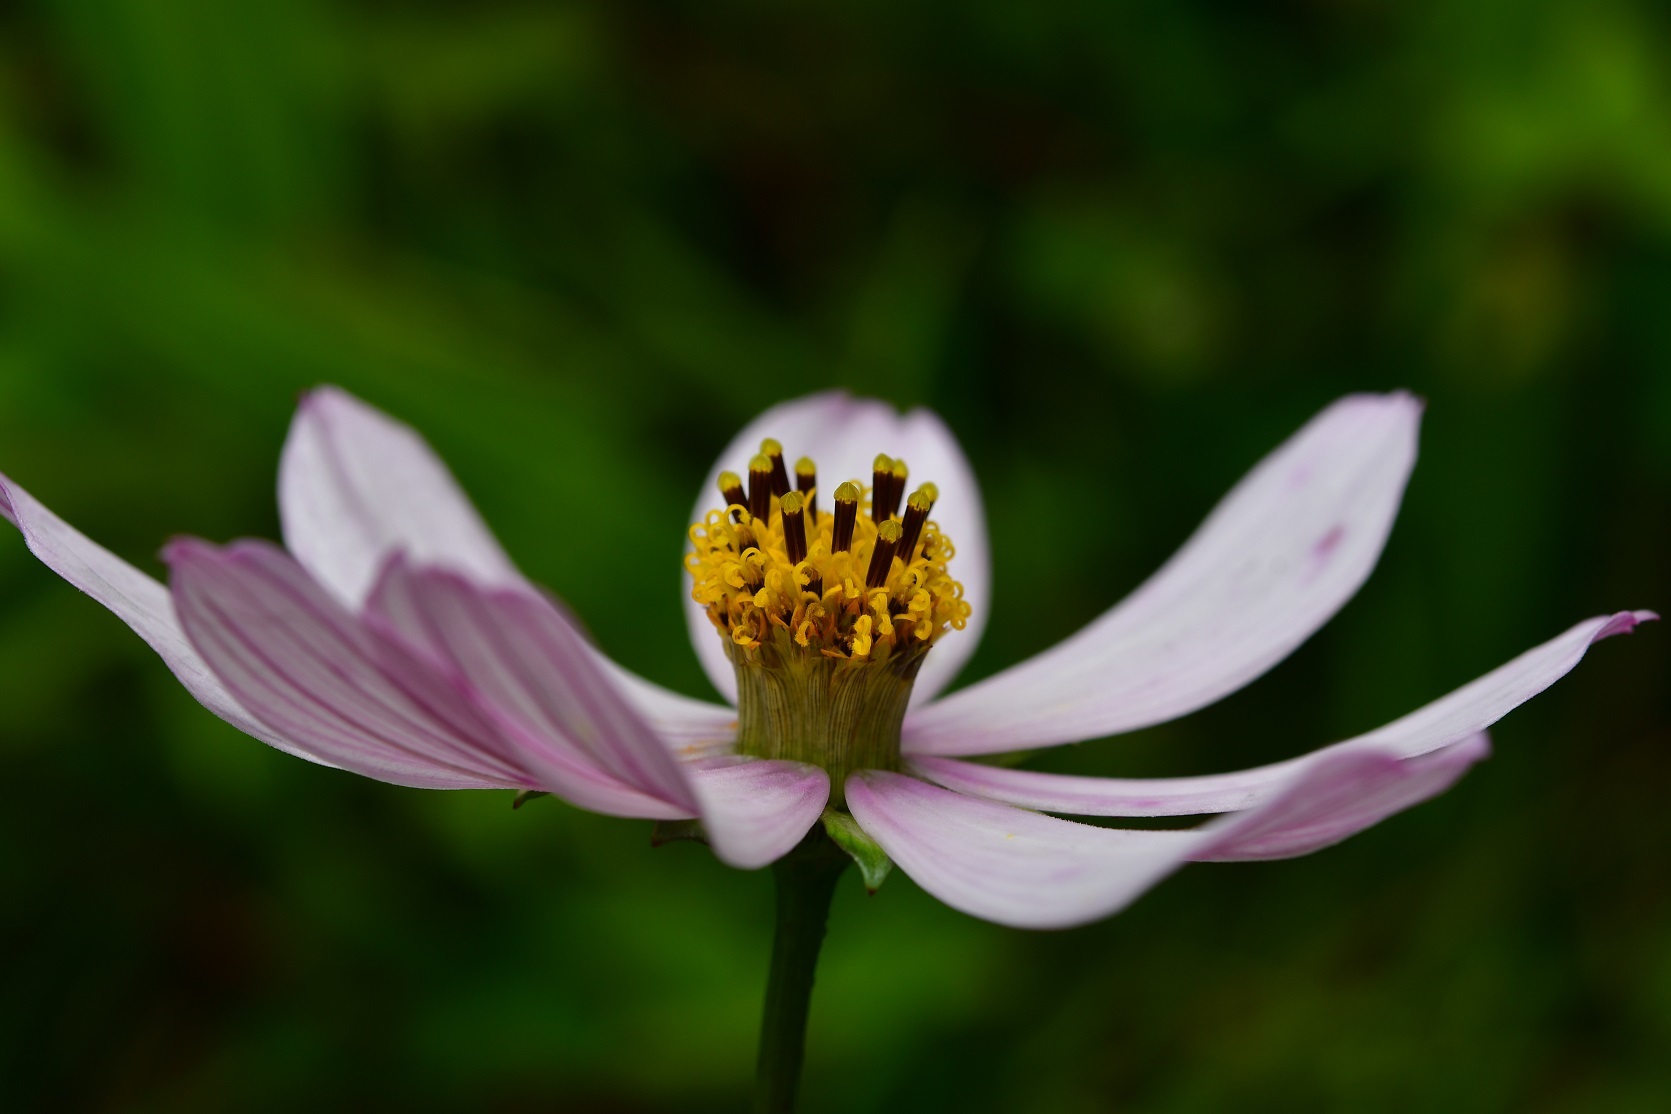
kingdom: Plantae
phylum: Tracheophyta
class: Magnoliopsida
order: Asterales
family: Asteraceae
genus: Cosmos
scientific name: Cosmos diversifolius
